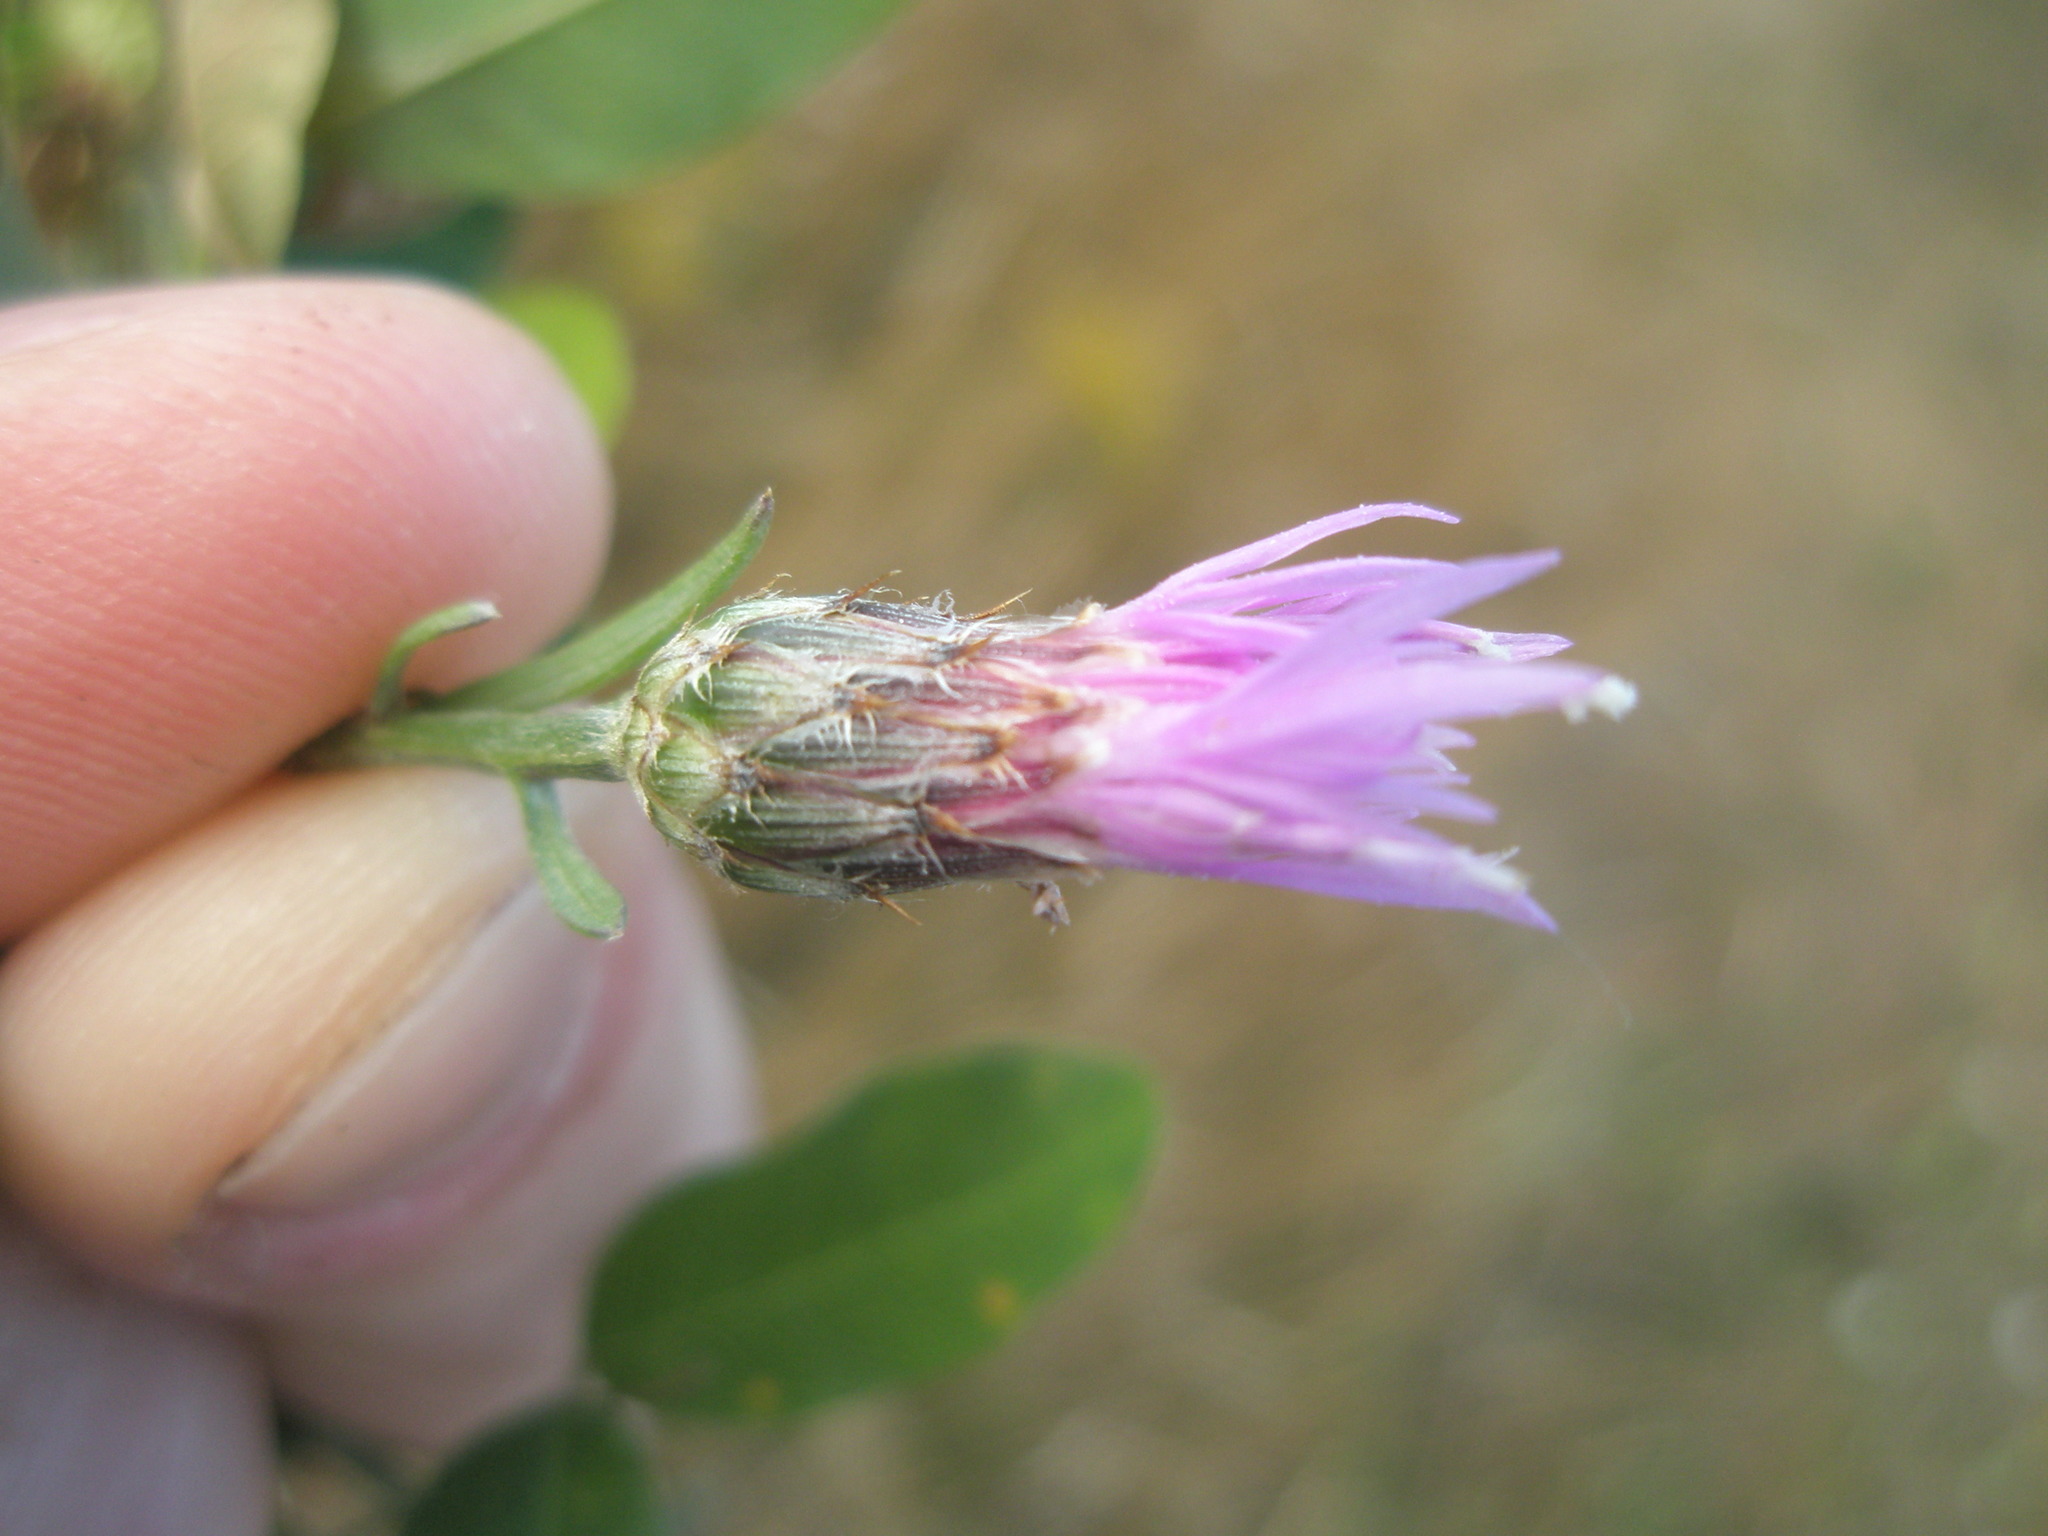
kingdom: Plantae
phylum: Tracheophyta
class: Magnoliopsida
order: Asterales
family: Asteraceae
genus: Centaurea
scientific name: Centaurea stoebe
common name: Spotted knapweed
